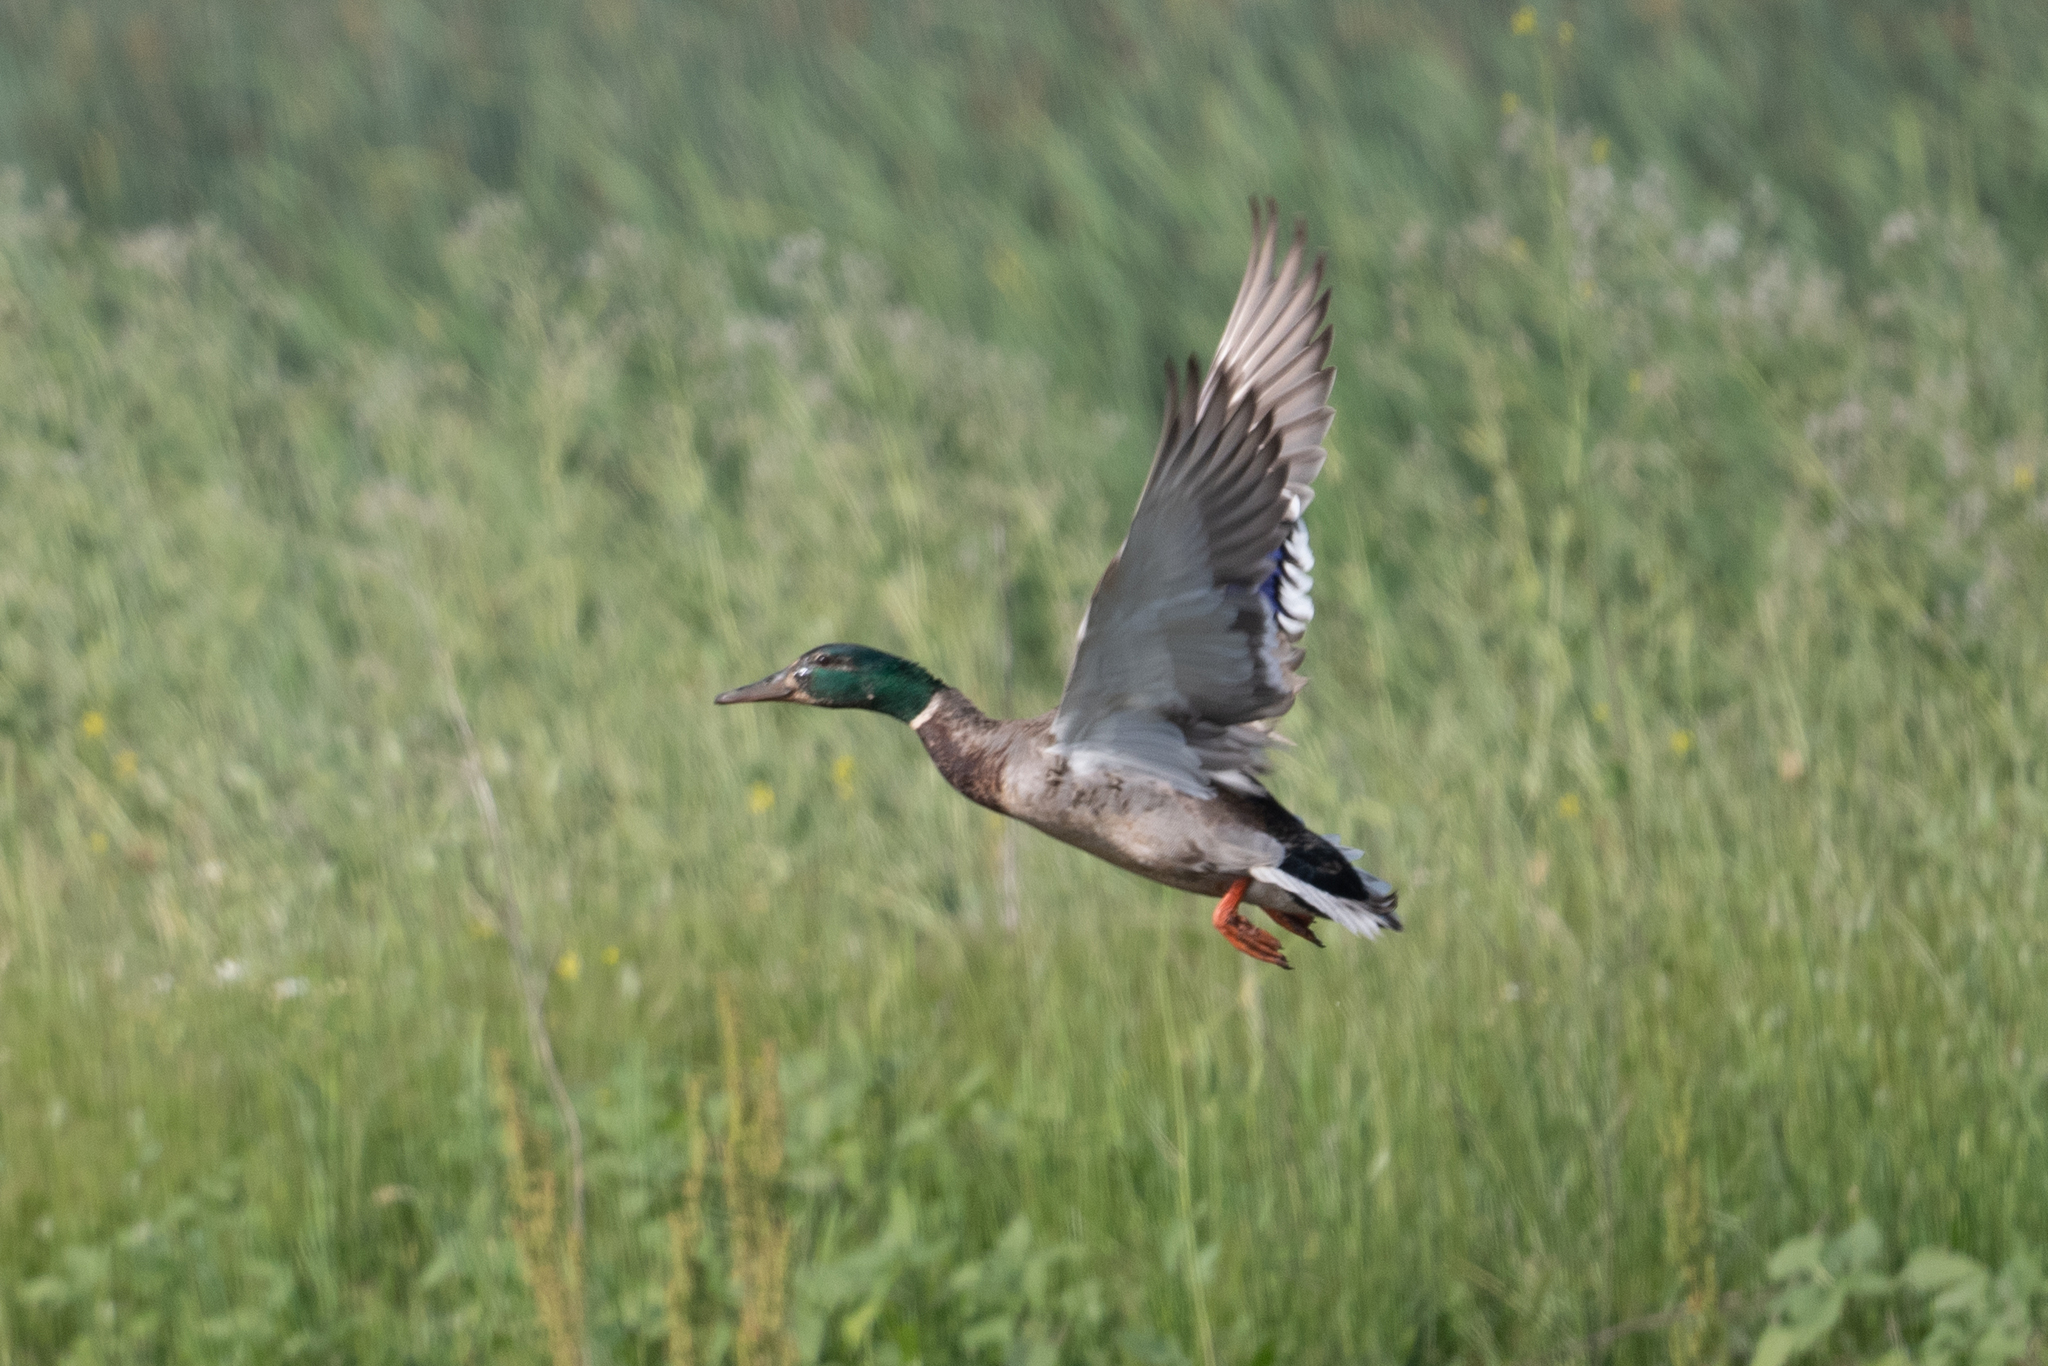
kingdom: Animalia
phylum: Chordata
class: Aves
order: Anseriformes
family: Anatidae
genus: Anas
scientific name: Anas platyrhynchos
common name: Mallard
